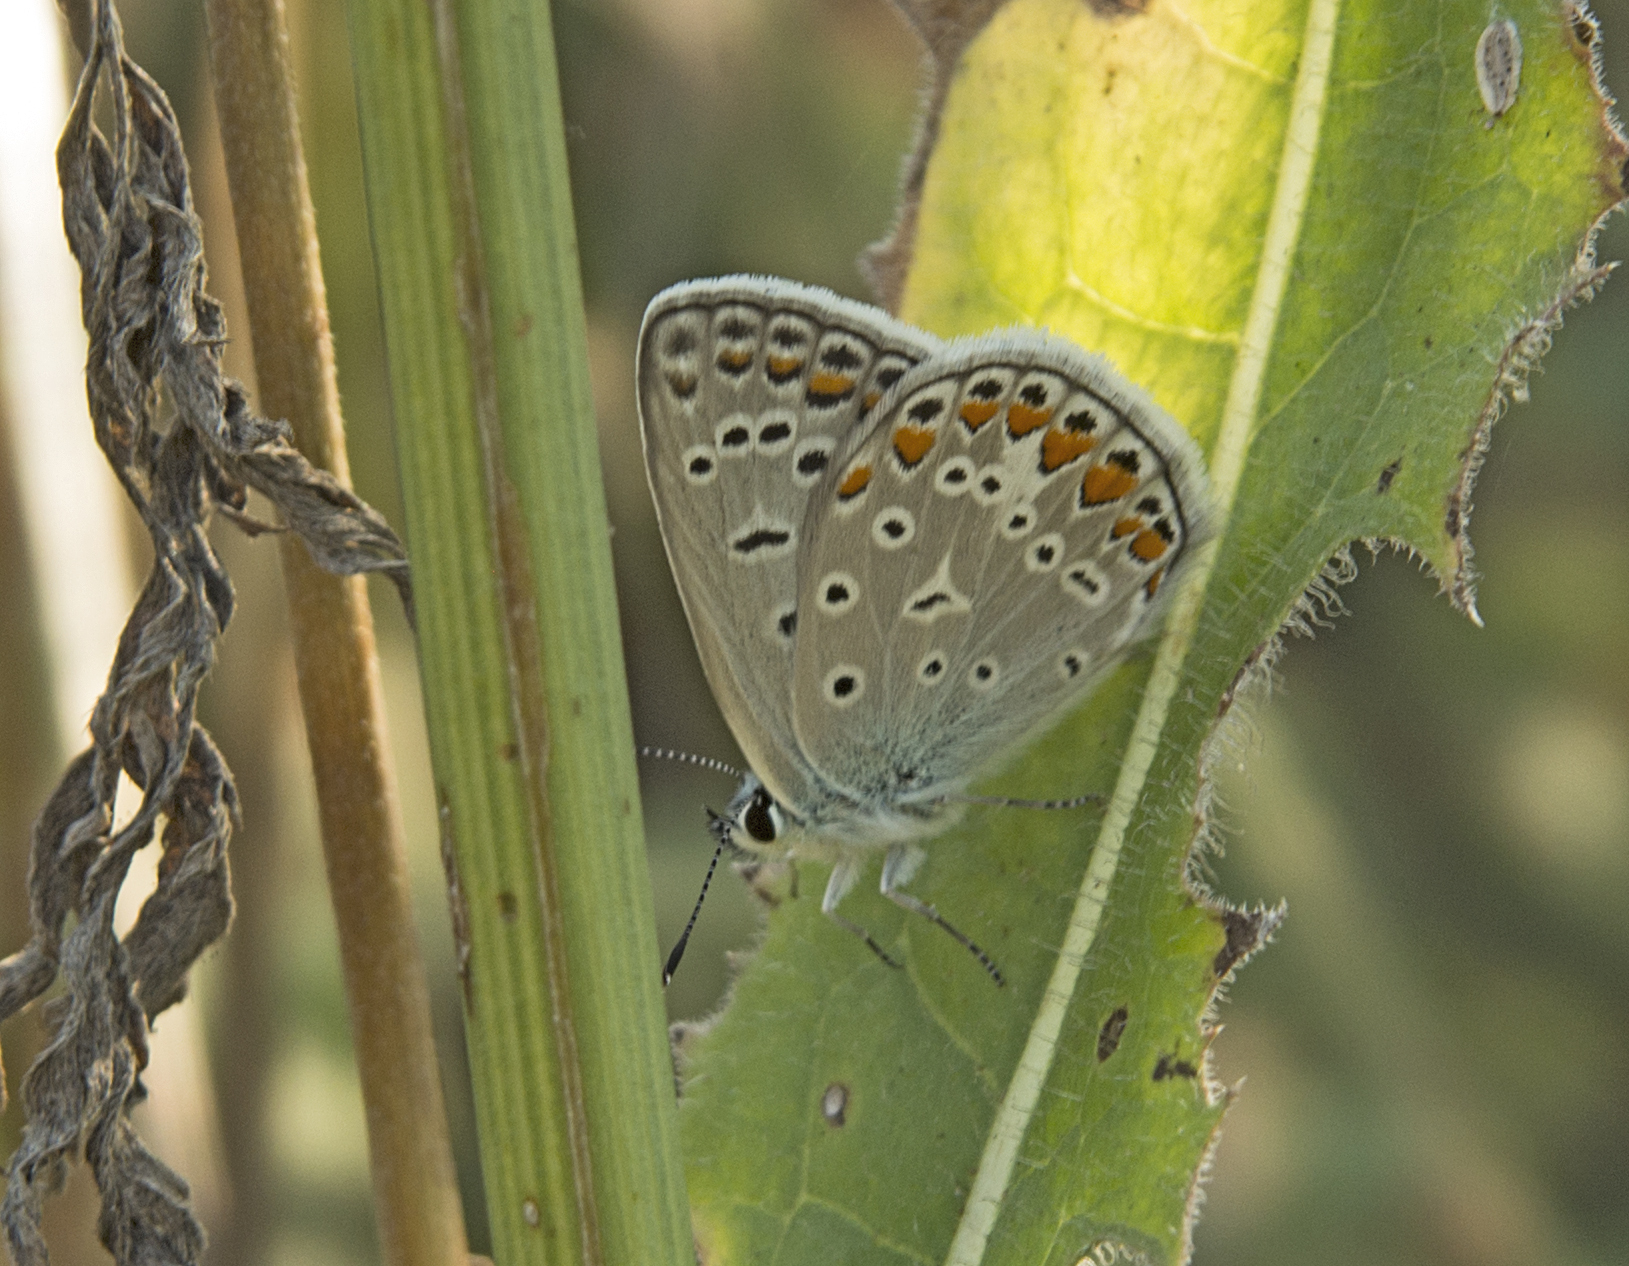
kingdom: Animalia
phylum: Arthropoda
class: Insecta
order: Lepidoptera
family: Lycaenidae
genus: Polyommatus
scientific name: Polyommatus icarus
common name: Common blue
